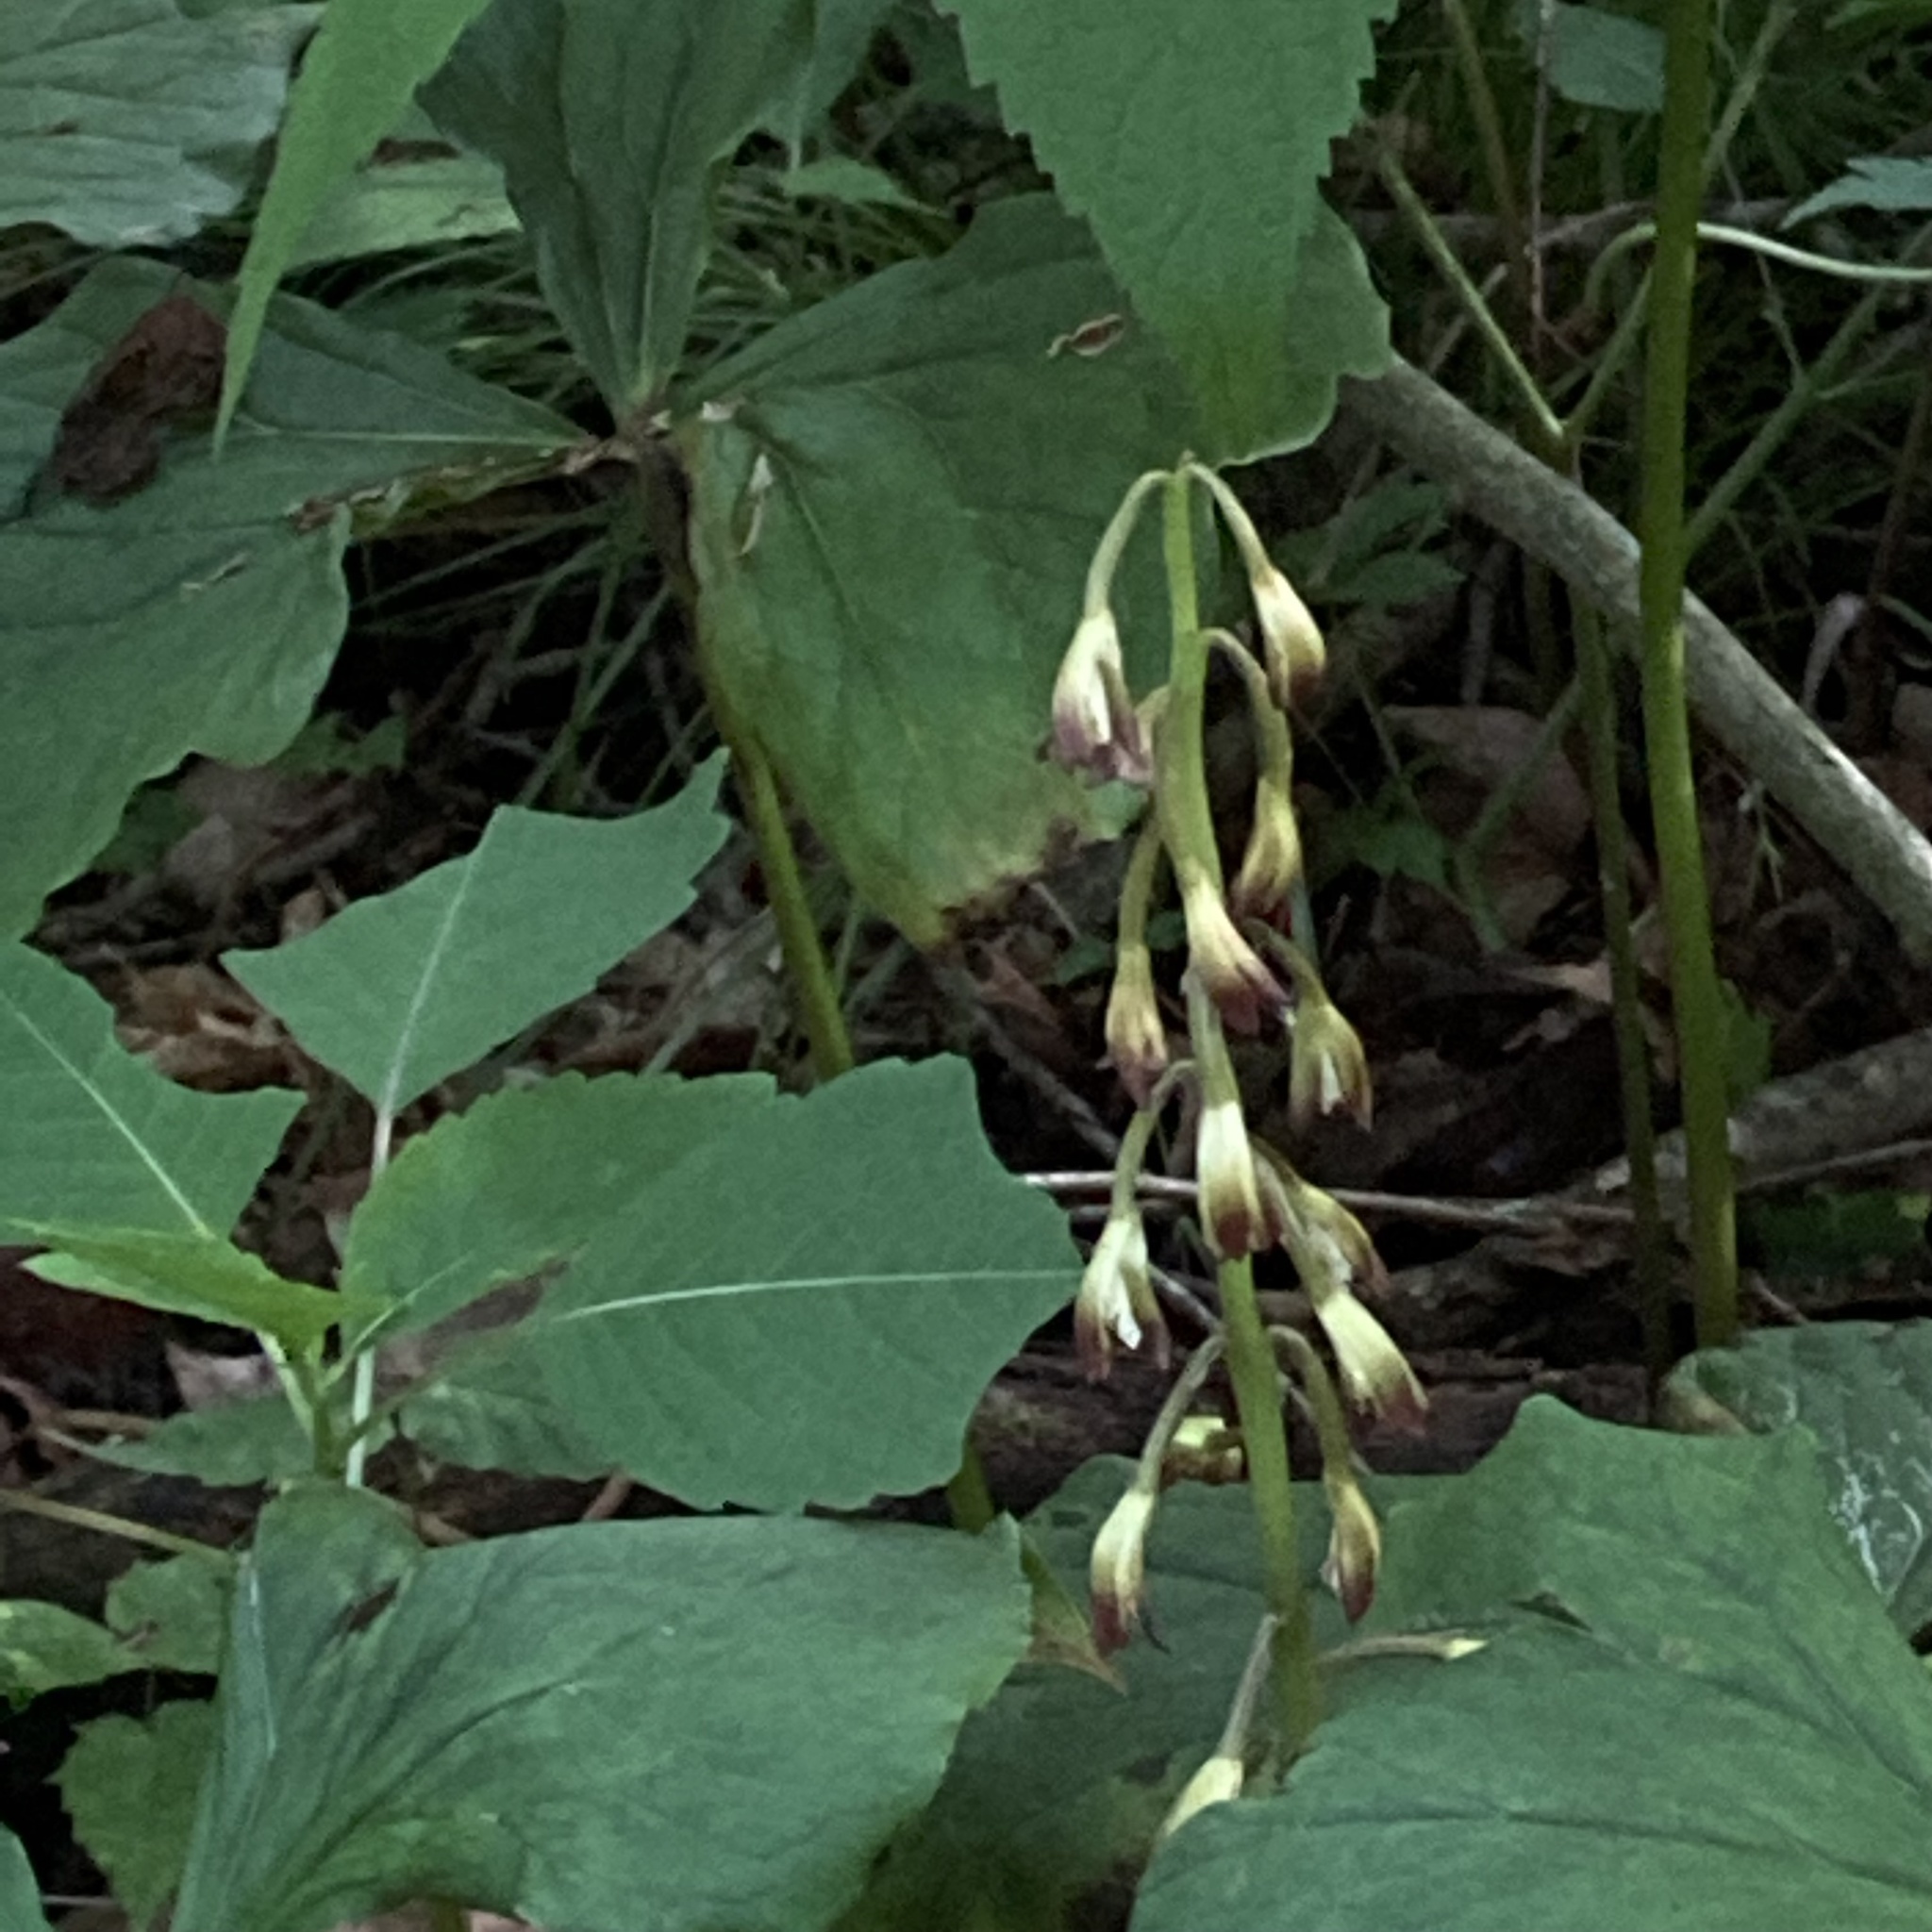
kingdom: Plantae
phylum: Tracheophyta
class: Liliopsida
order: Asparagales
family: Orchidaceae
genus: Aplectrum
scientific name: Aplectrum hyemale
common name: Adam-and-eve
